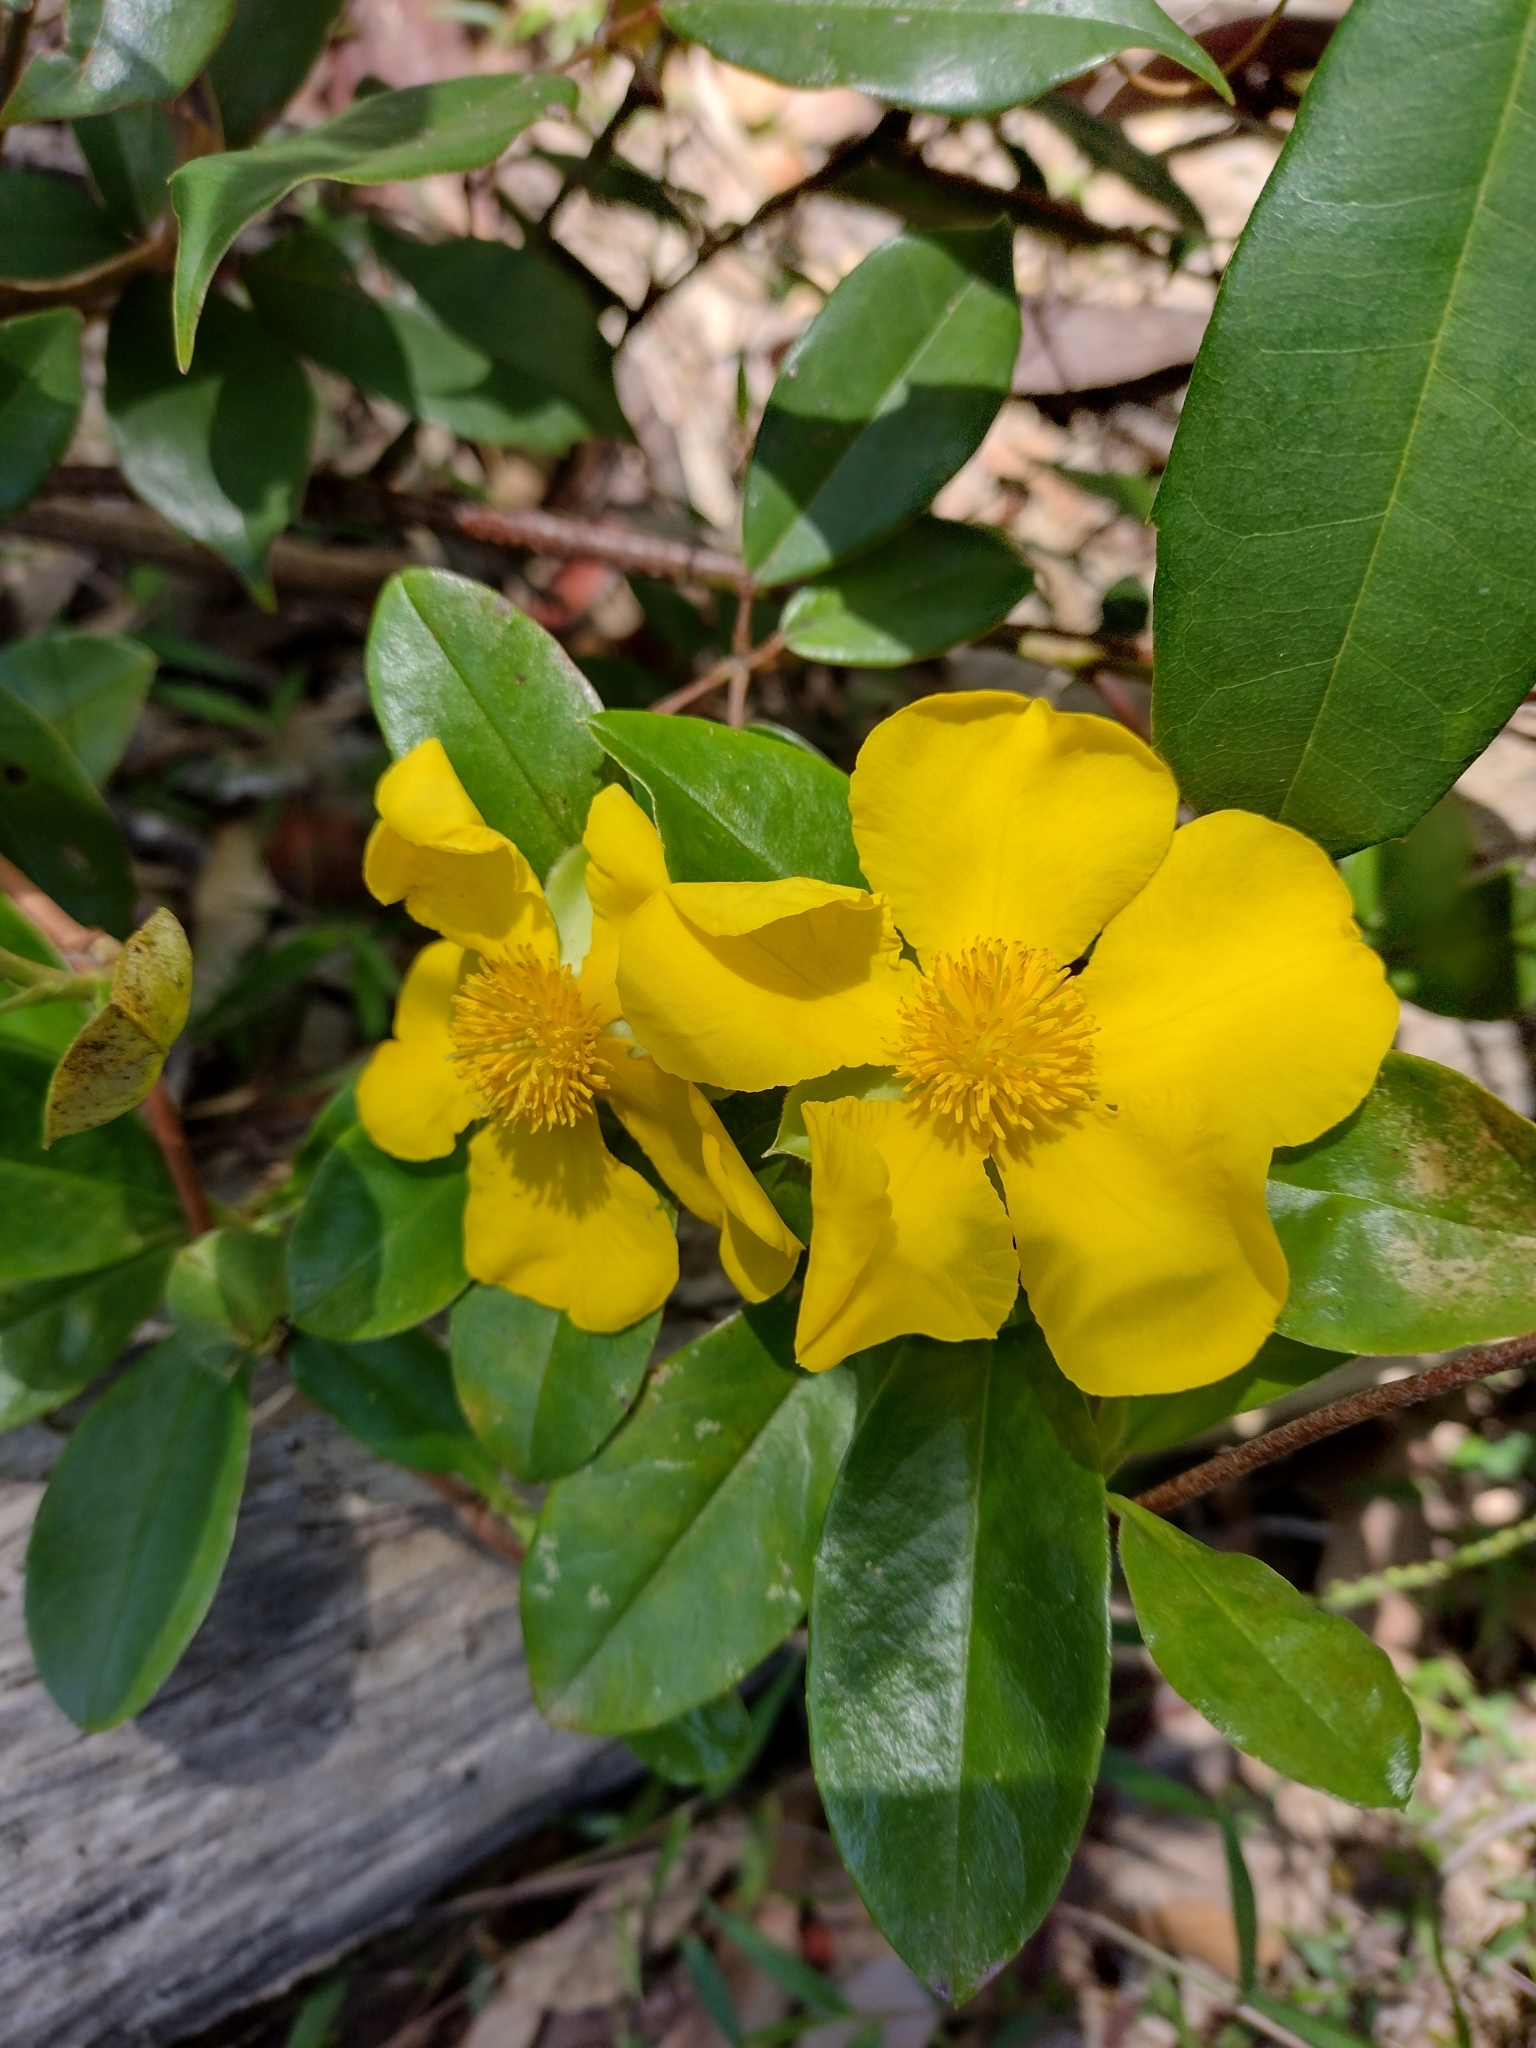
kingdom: Plantae
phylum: Tracheophyta
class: Magnoliopsida
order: Dilleniales
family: Dilleniaceae
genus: Hibbertia
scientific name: Hibbertia scandens
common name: Climbing guinea-flower
